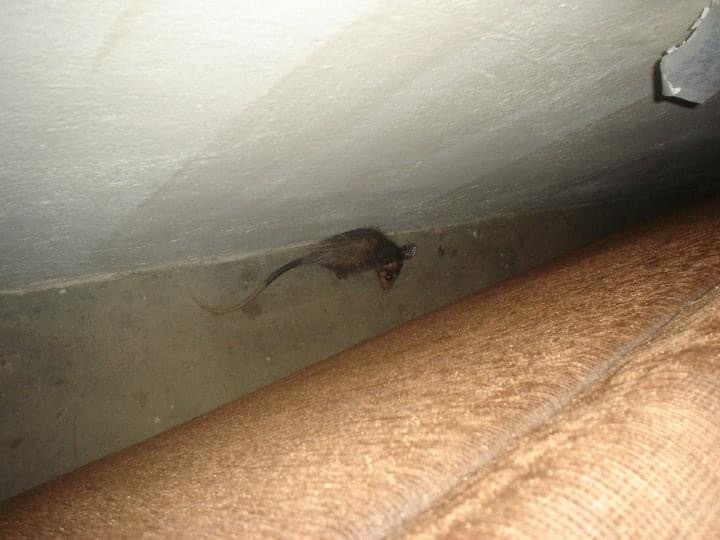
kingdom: Animalia
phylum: Chordata
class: Mammalia
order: Didelphimorphia
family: Didelphidae
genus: Didelphis
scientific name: Didelphis marsupialis
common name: Common opossum
